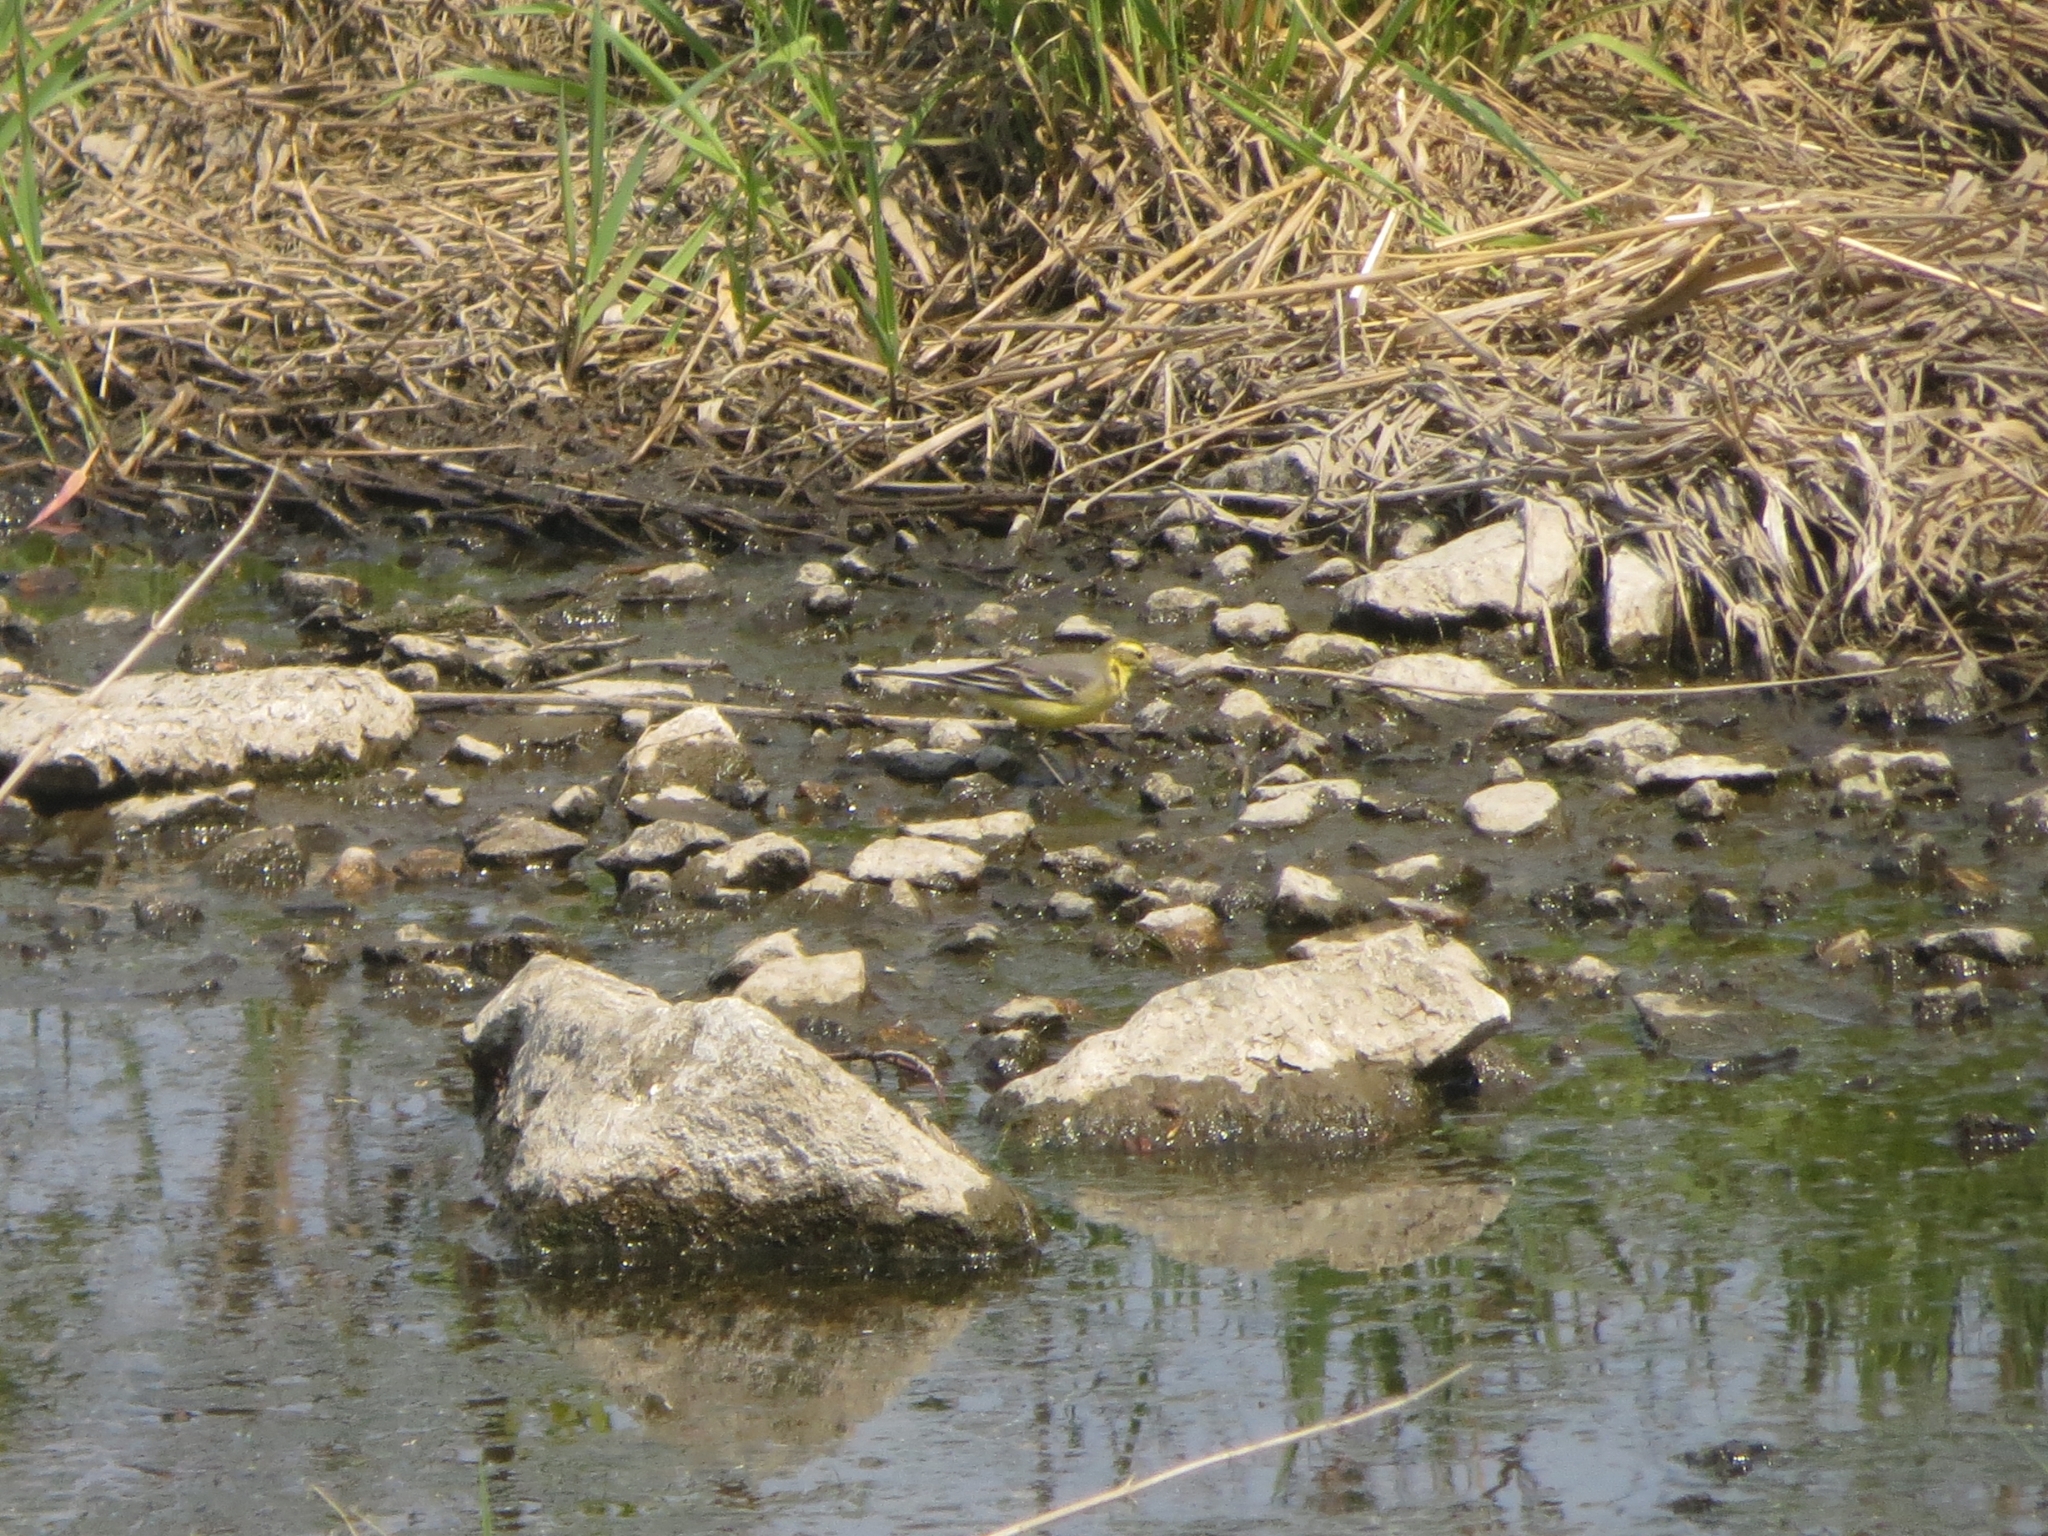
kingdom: Animalia
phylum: Chordata
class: Aves
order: Passeriformes
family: Motacillidae
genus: Motacilla
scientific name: Motacilla citreola
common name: Citrine wagtail
